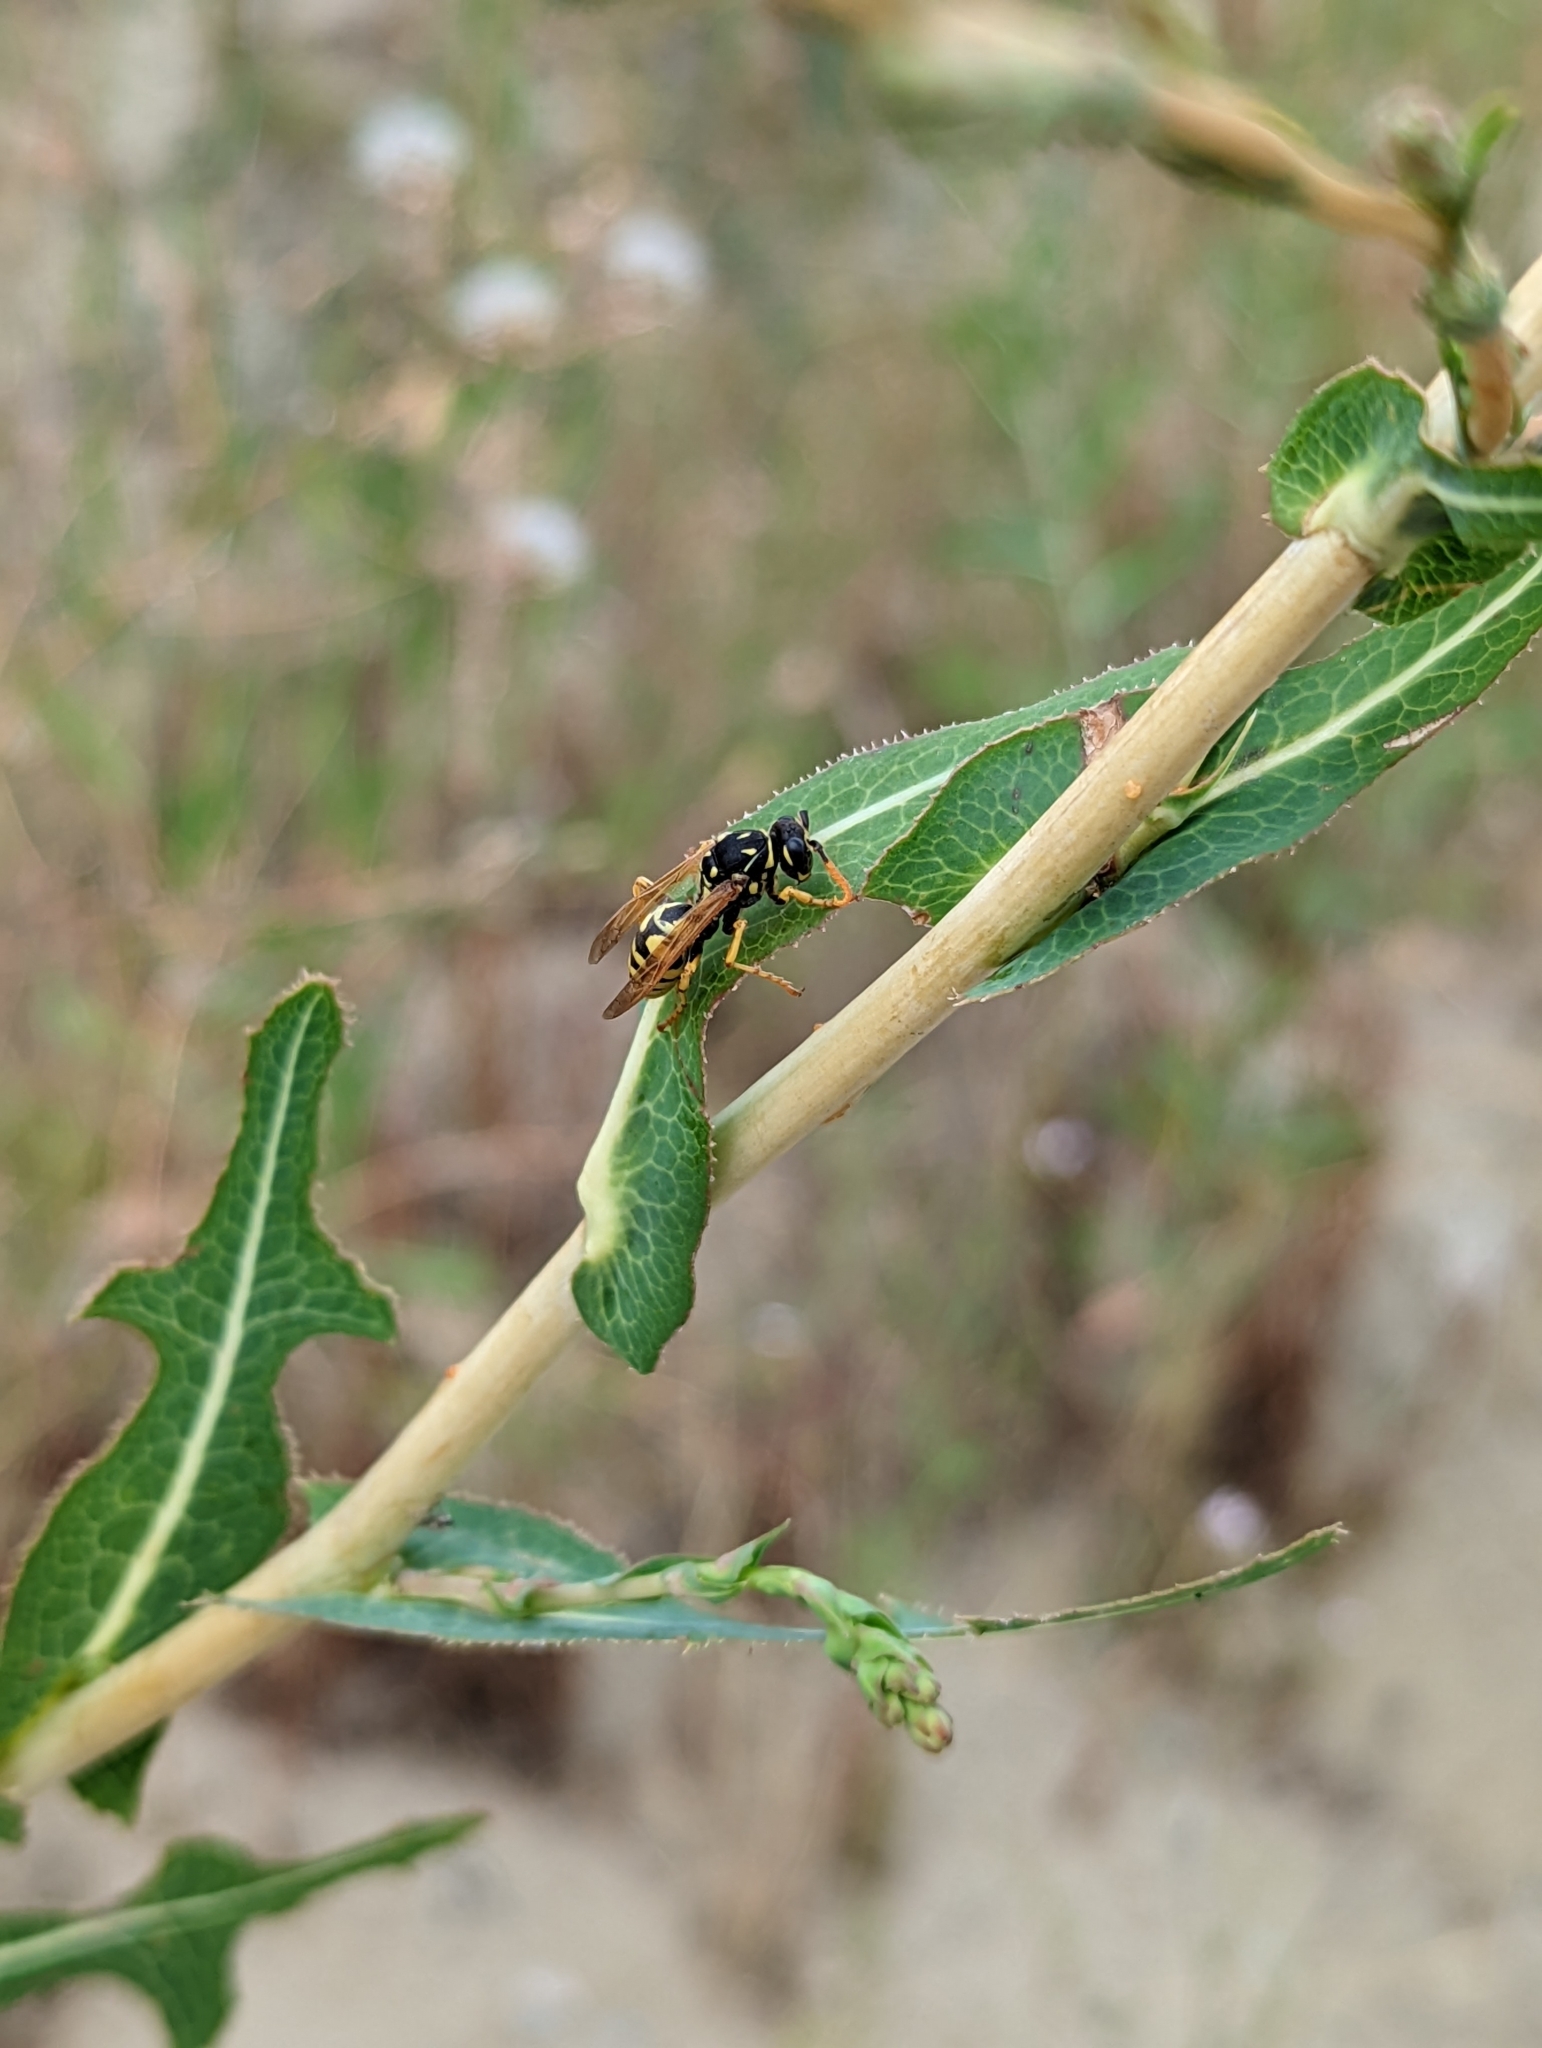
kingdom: Animalia
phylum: Arthropoda
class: Insecta
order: Hymenoptera
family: Eumenidae
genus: Polistes
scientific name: Polistes dominula
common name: Paper wasp
